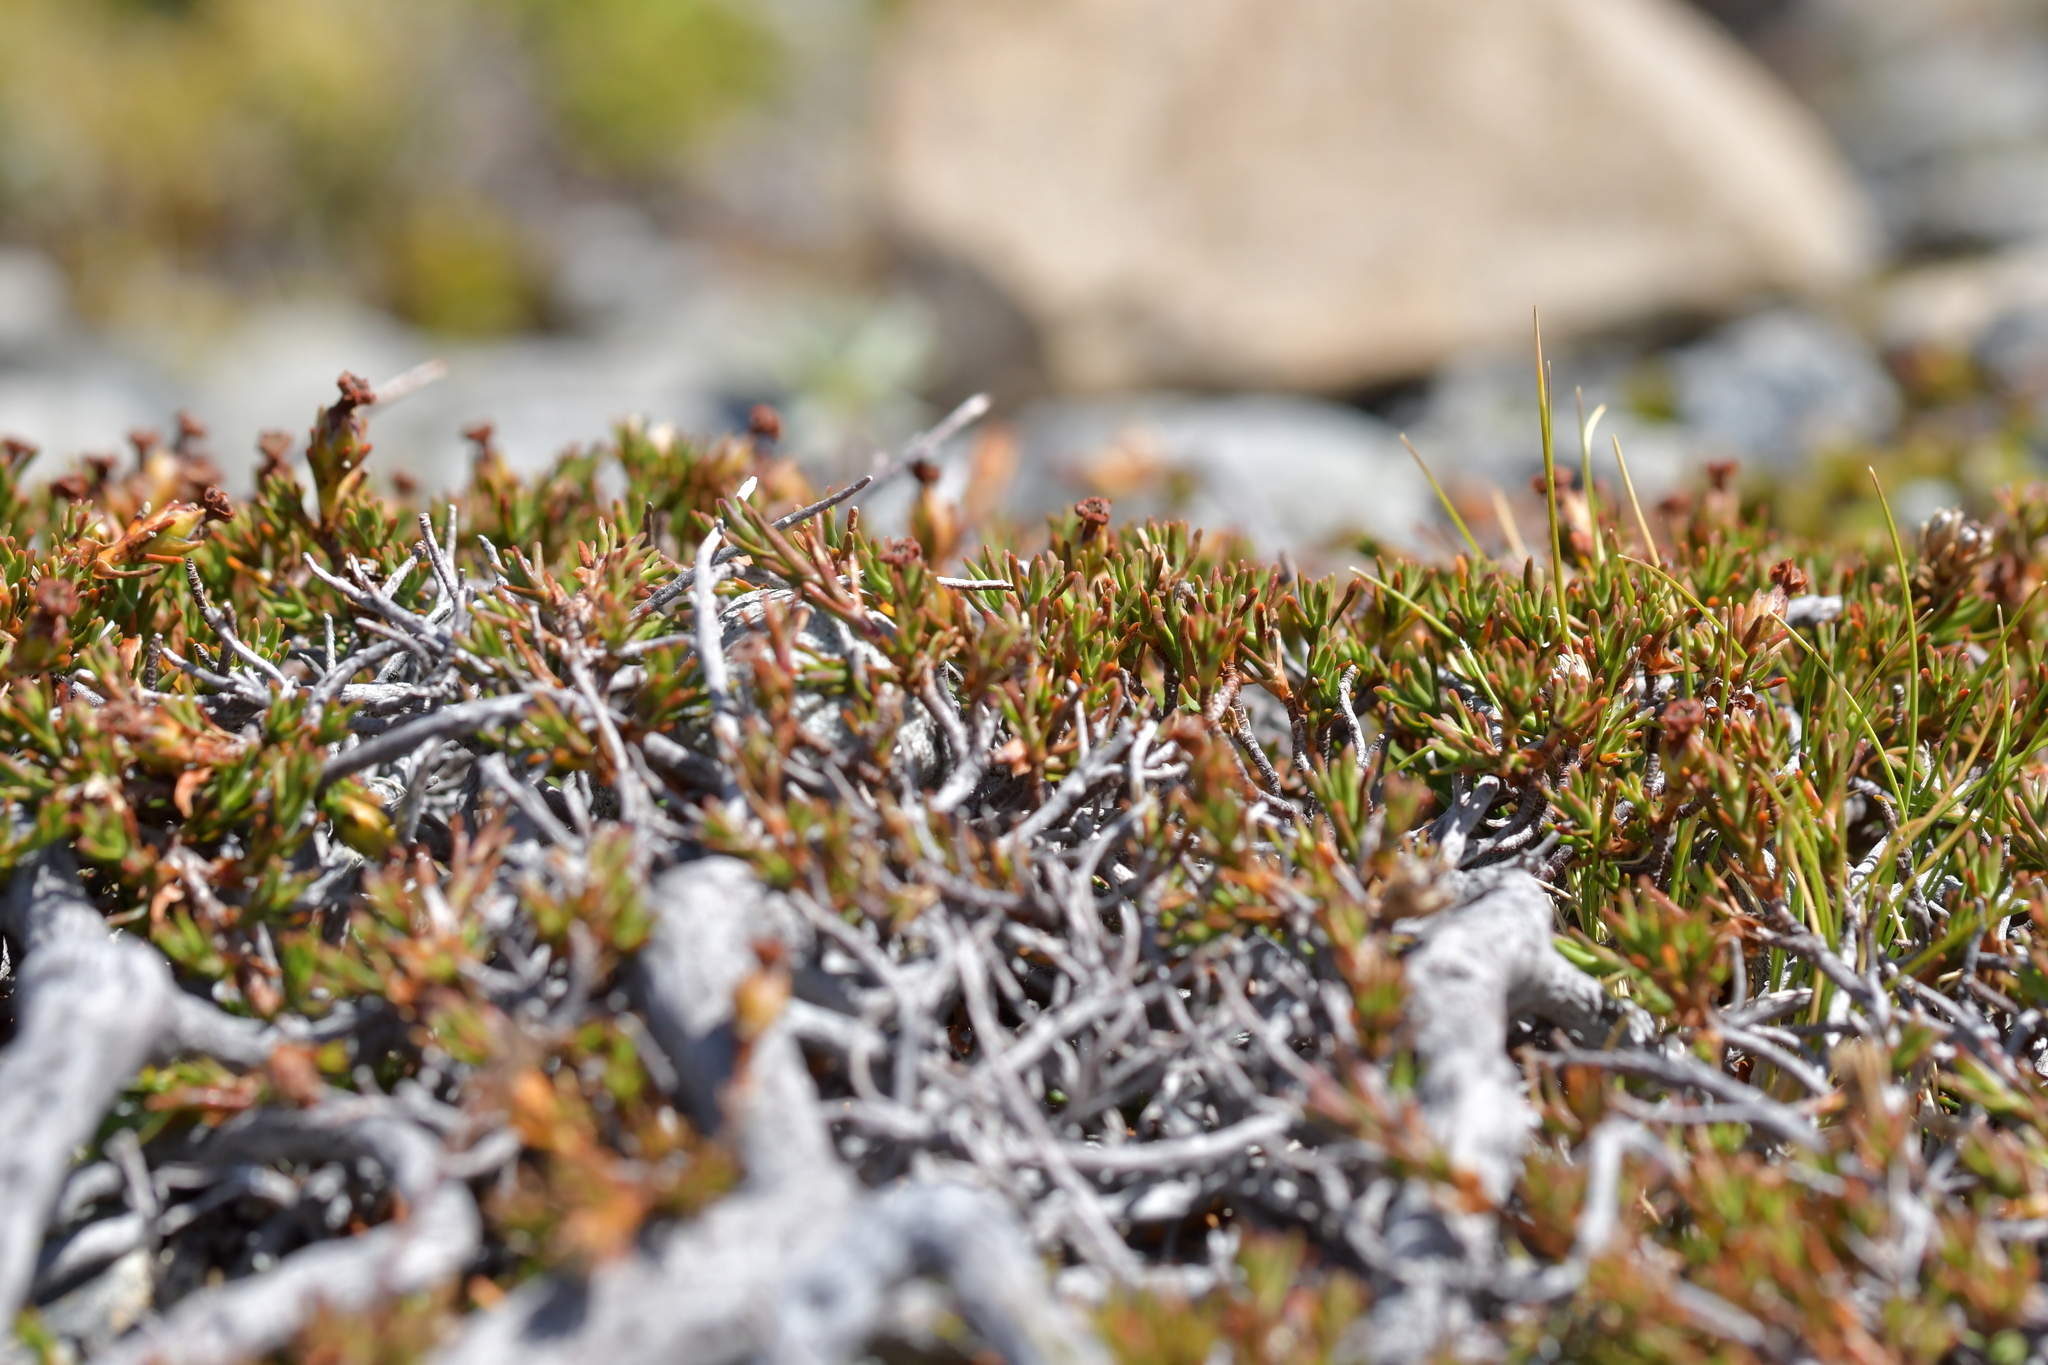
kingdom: Plantae
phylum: Tracheophyta
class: Magnoliopsida
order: Ericales
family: Ericaceae
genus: Dracophyllum
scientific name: Dracophyllum pronum
